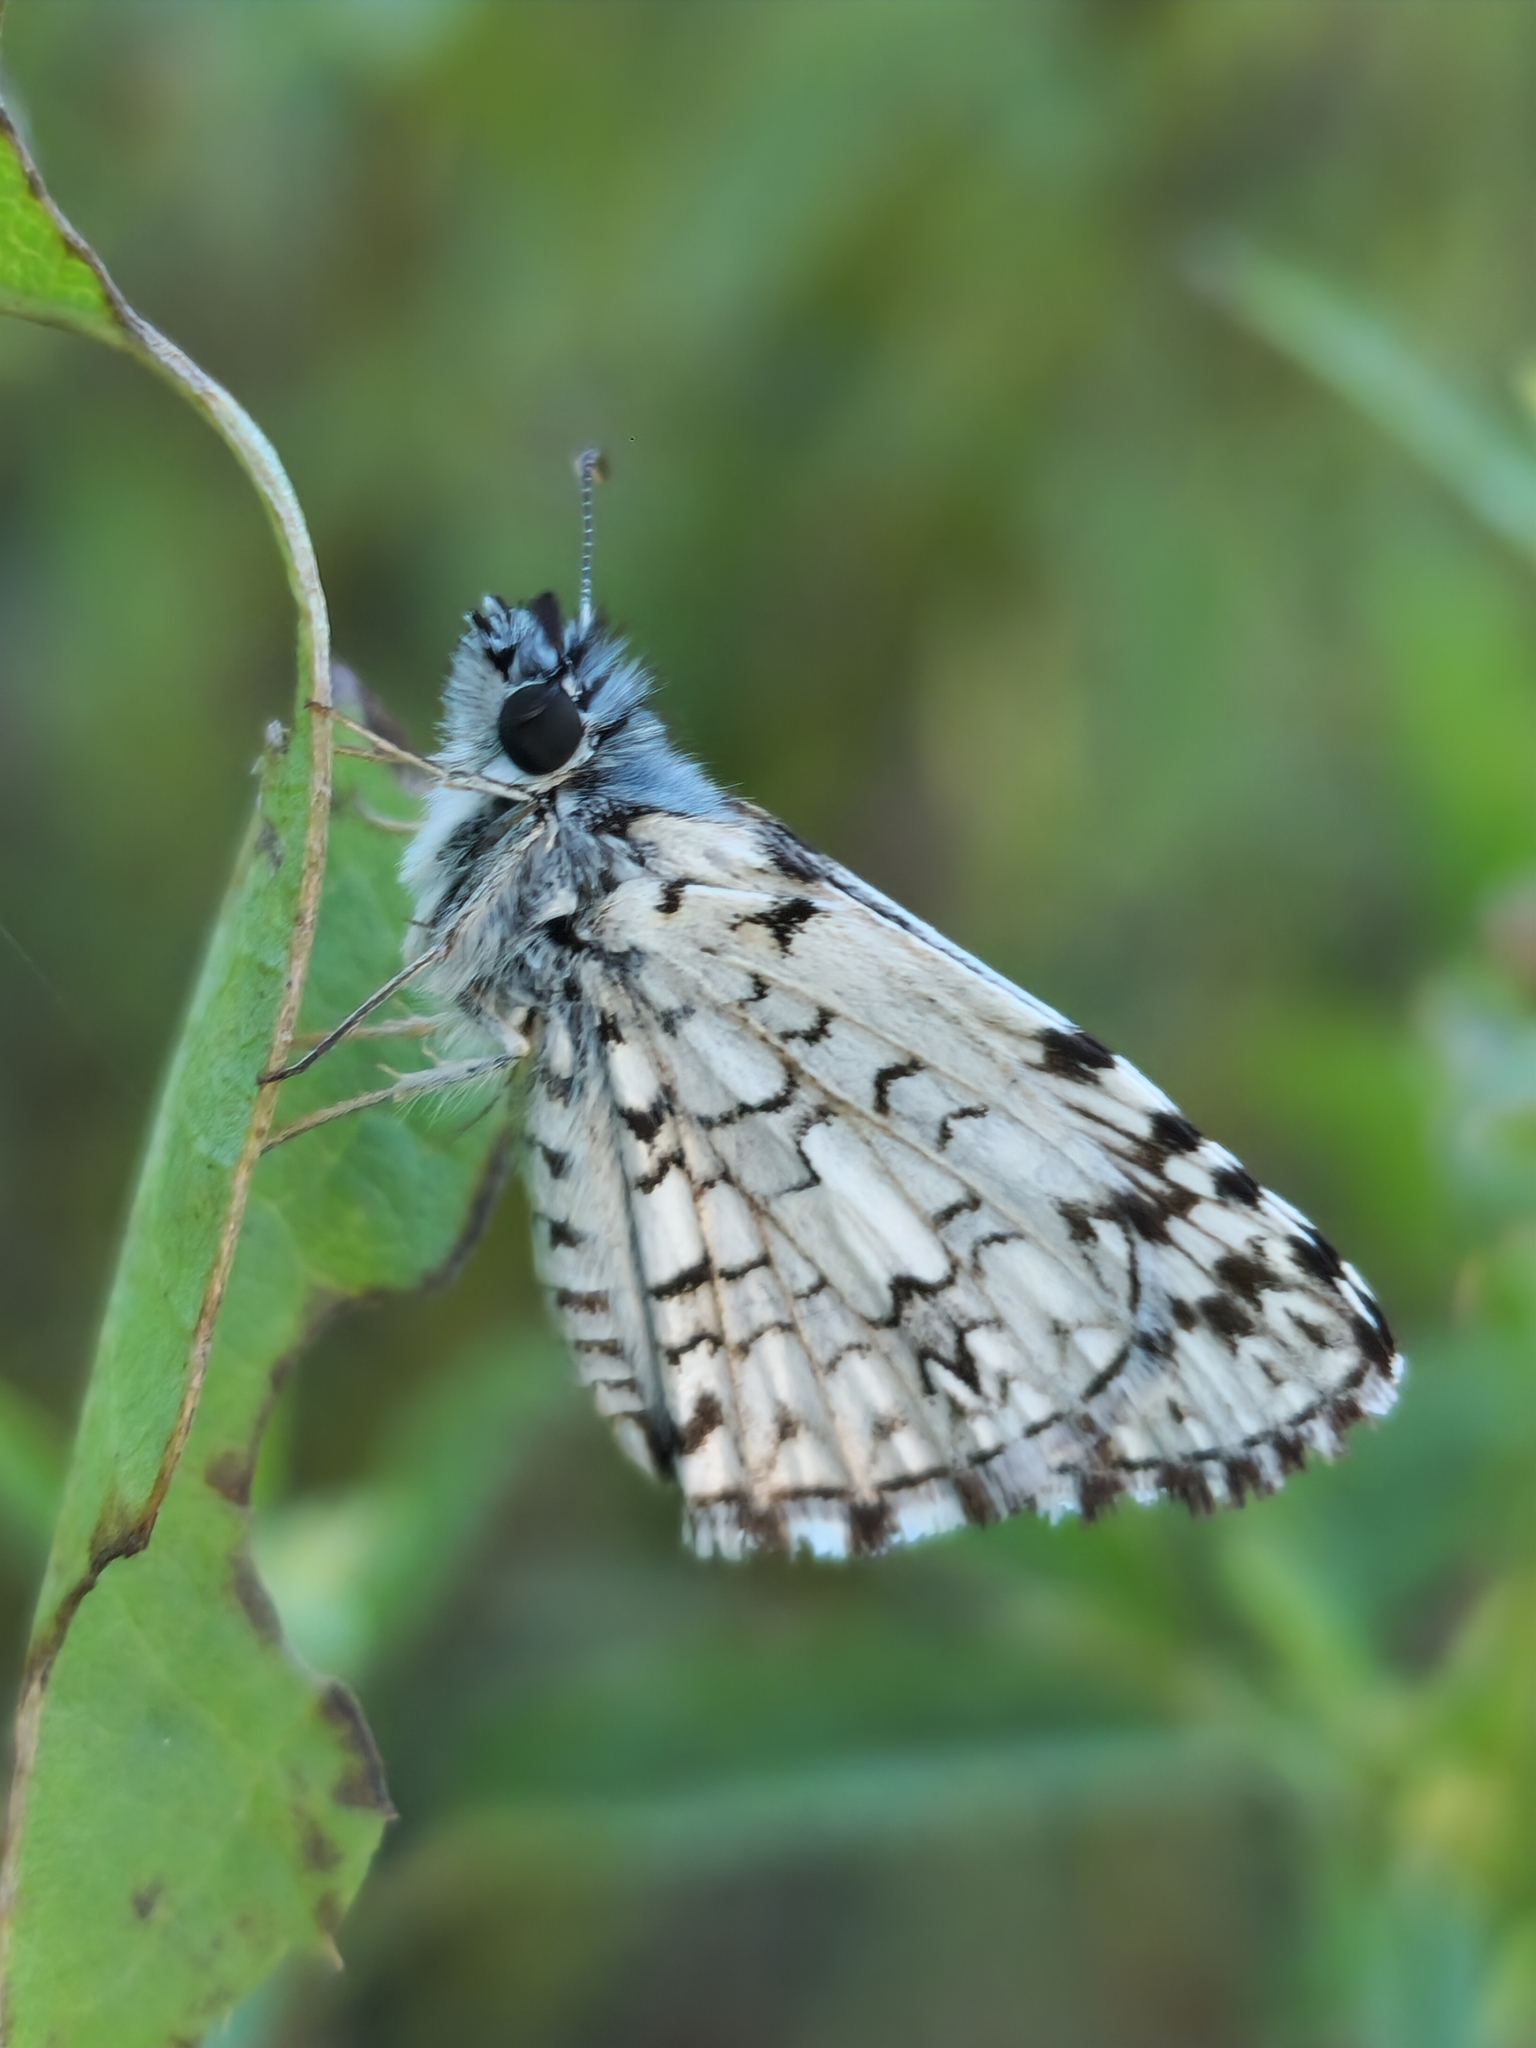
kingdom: Animalia
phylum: Arthropoda
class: Insecta
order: Lepidoptera
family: Hesperiidae
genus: Pyrgus
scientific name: Pyrgus oileus
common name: Tropical checkered-skipper
